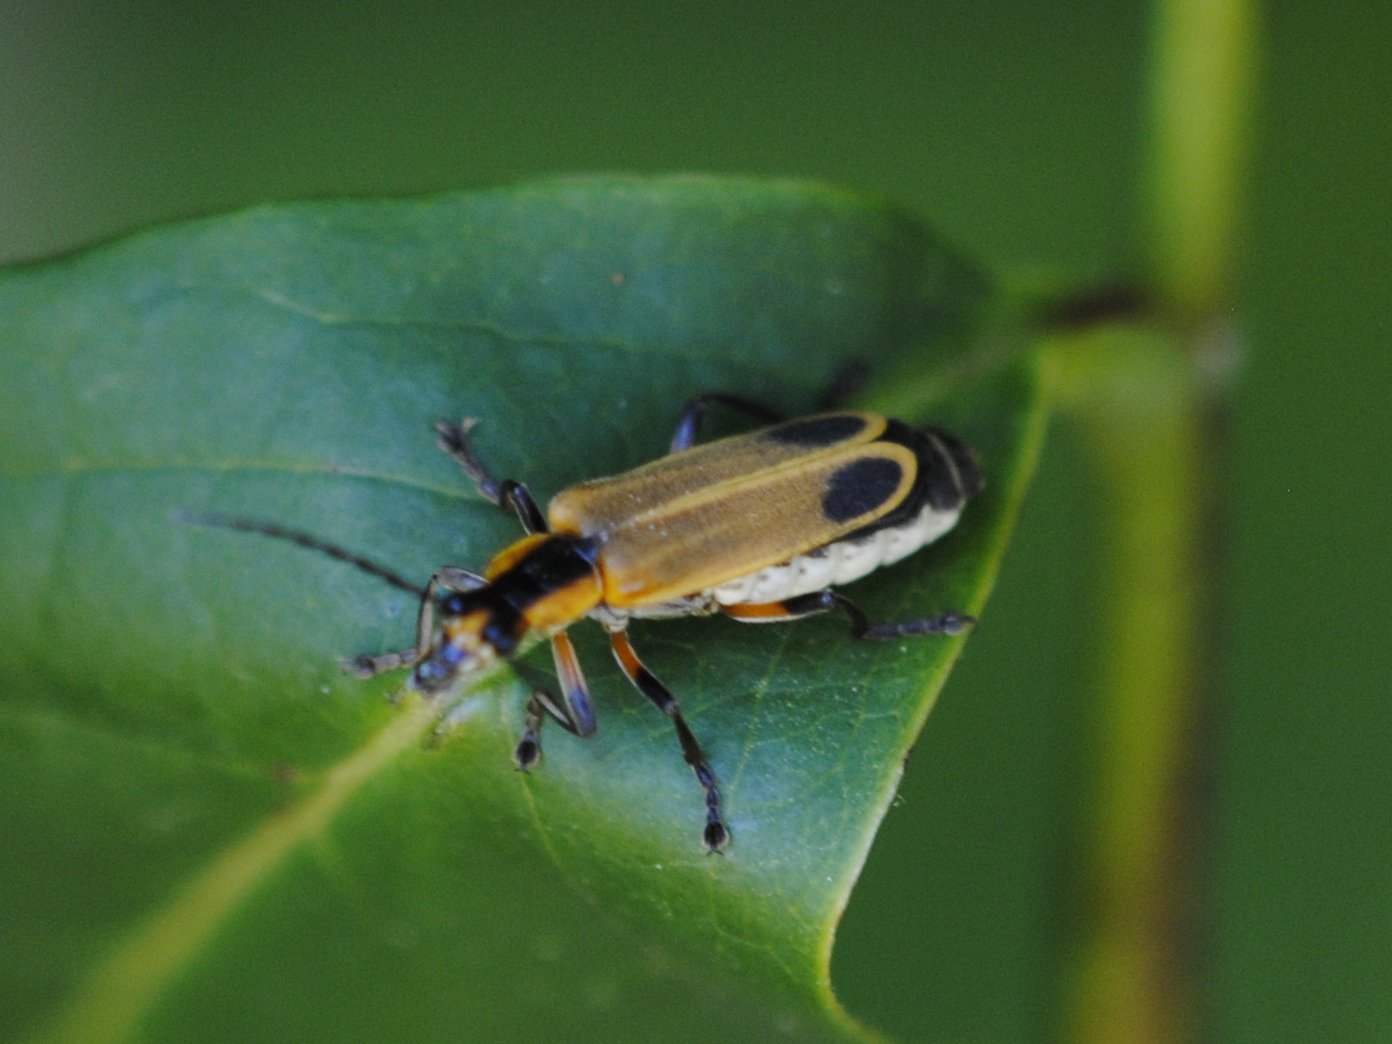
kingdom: Animalia
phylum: Arthropoda
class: Insecta
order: Coleoptera
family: Cantharidae
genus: Chauliognathus
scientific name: Chauliognathus marginatus
